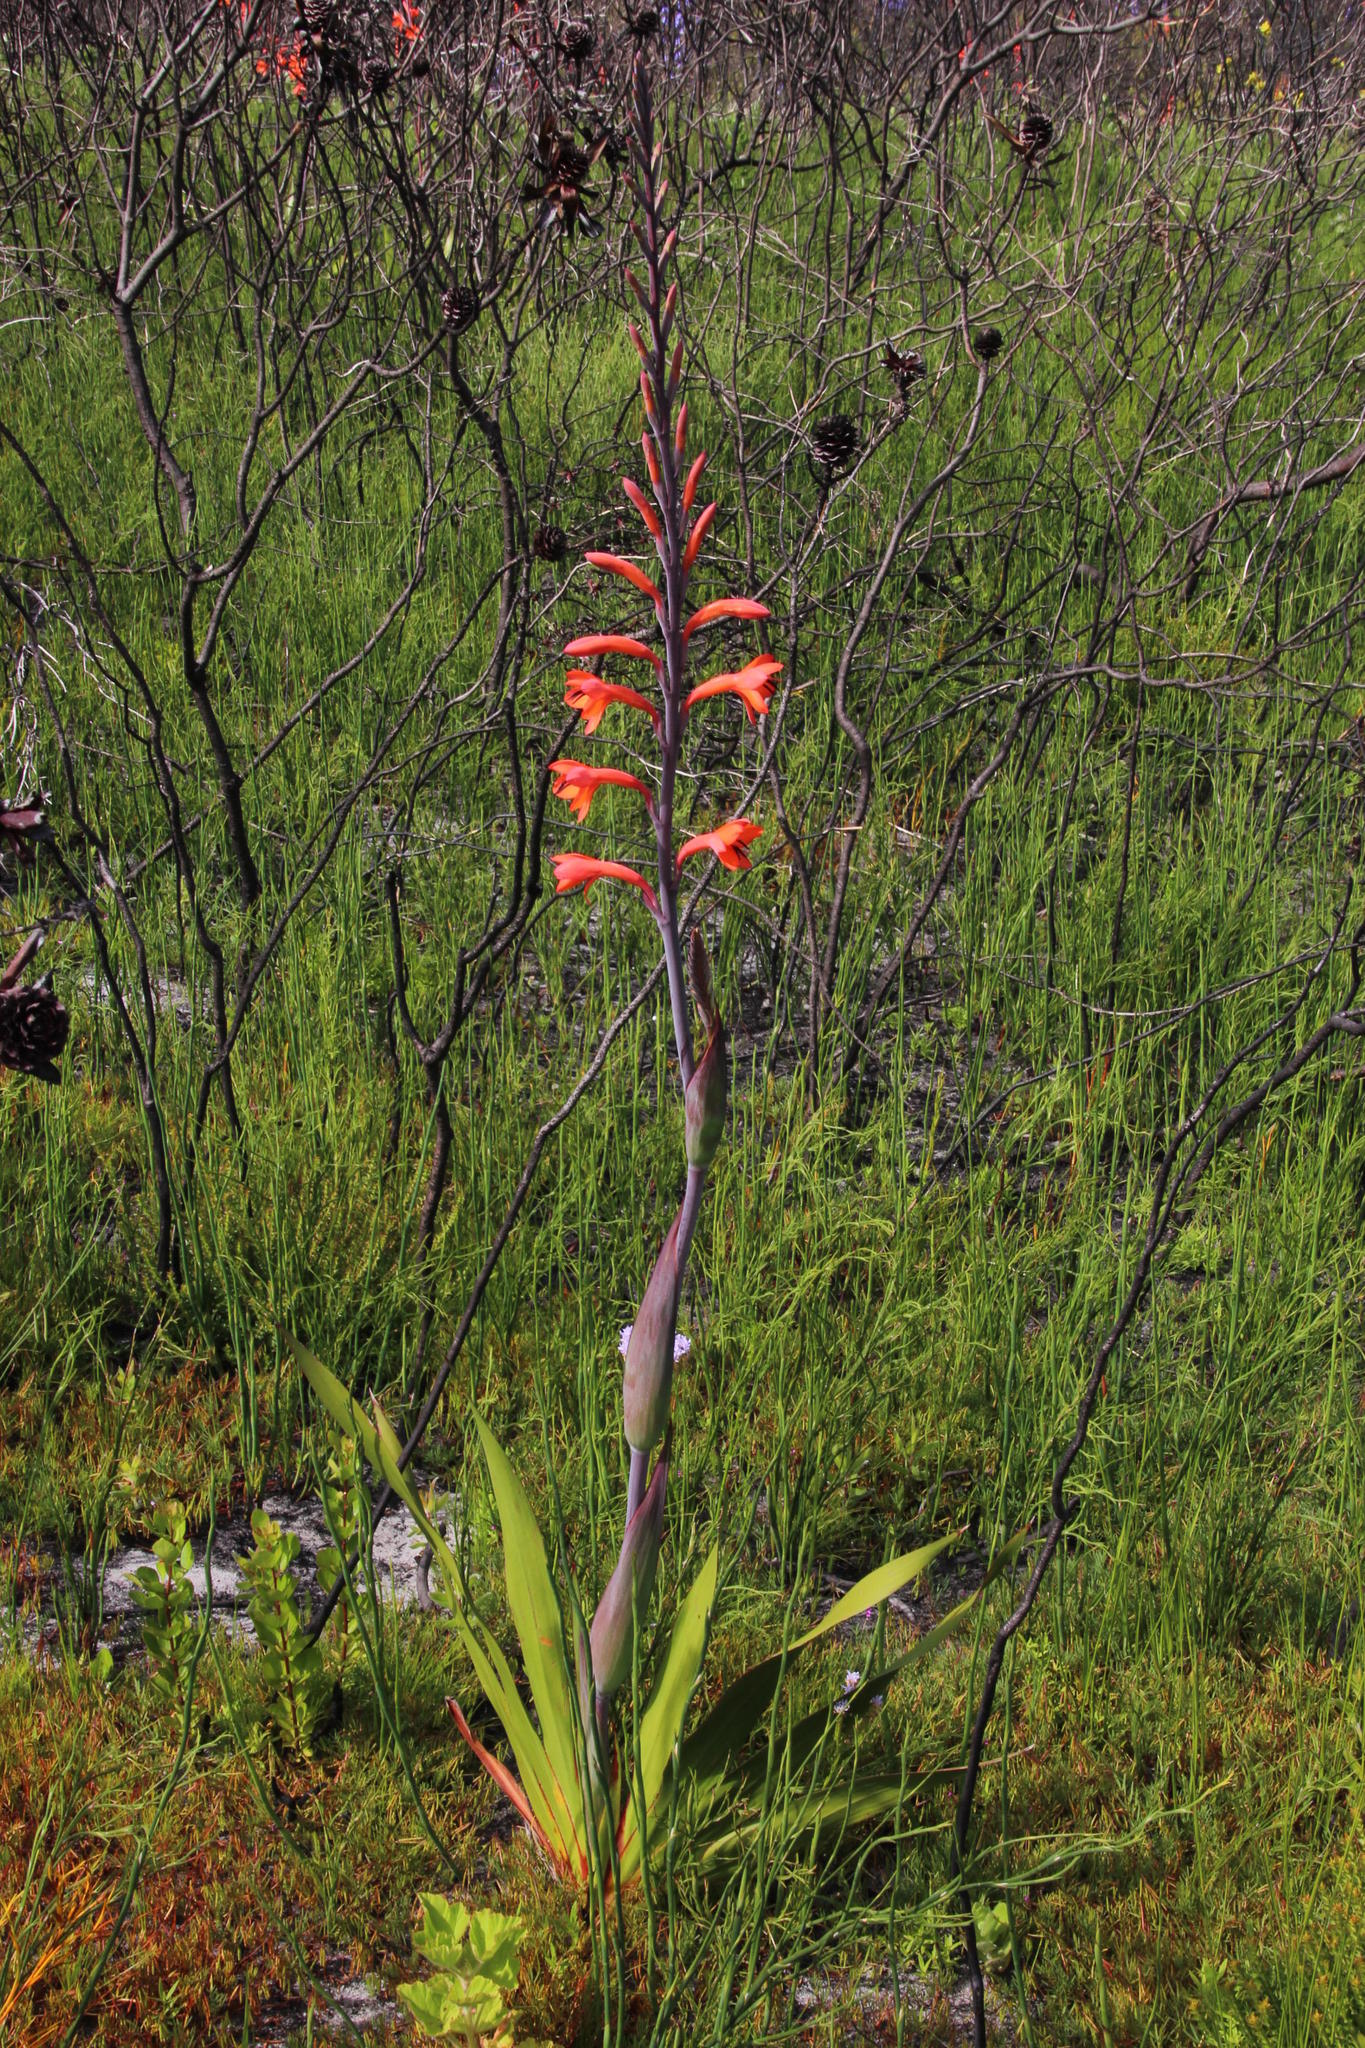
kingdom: Plantae
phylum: Tracheophyta
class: Liliopsida
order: Asparagales
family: Iridaceae
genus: Watsonia
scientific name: Watsonia tabularis
